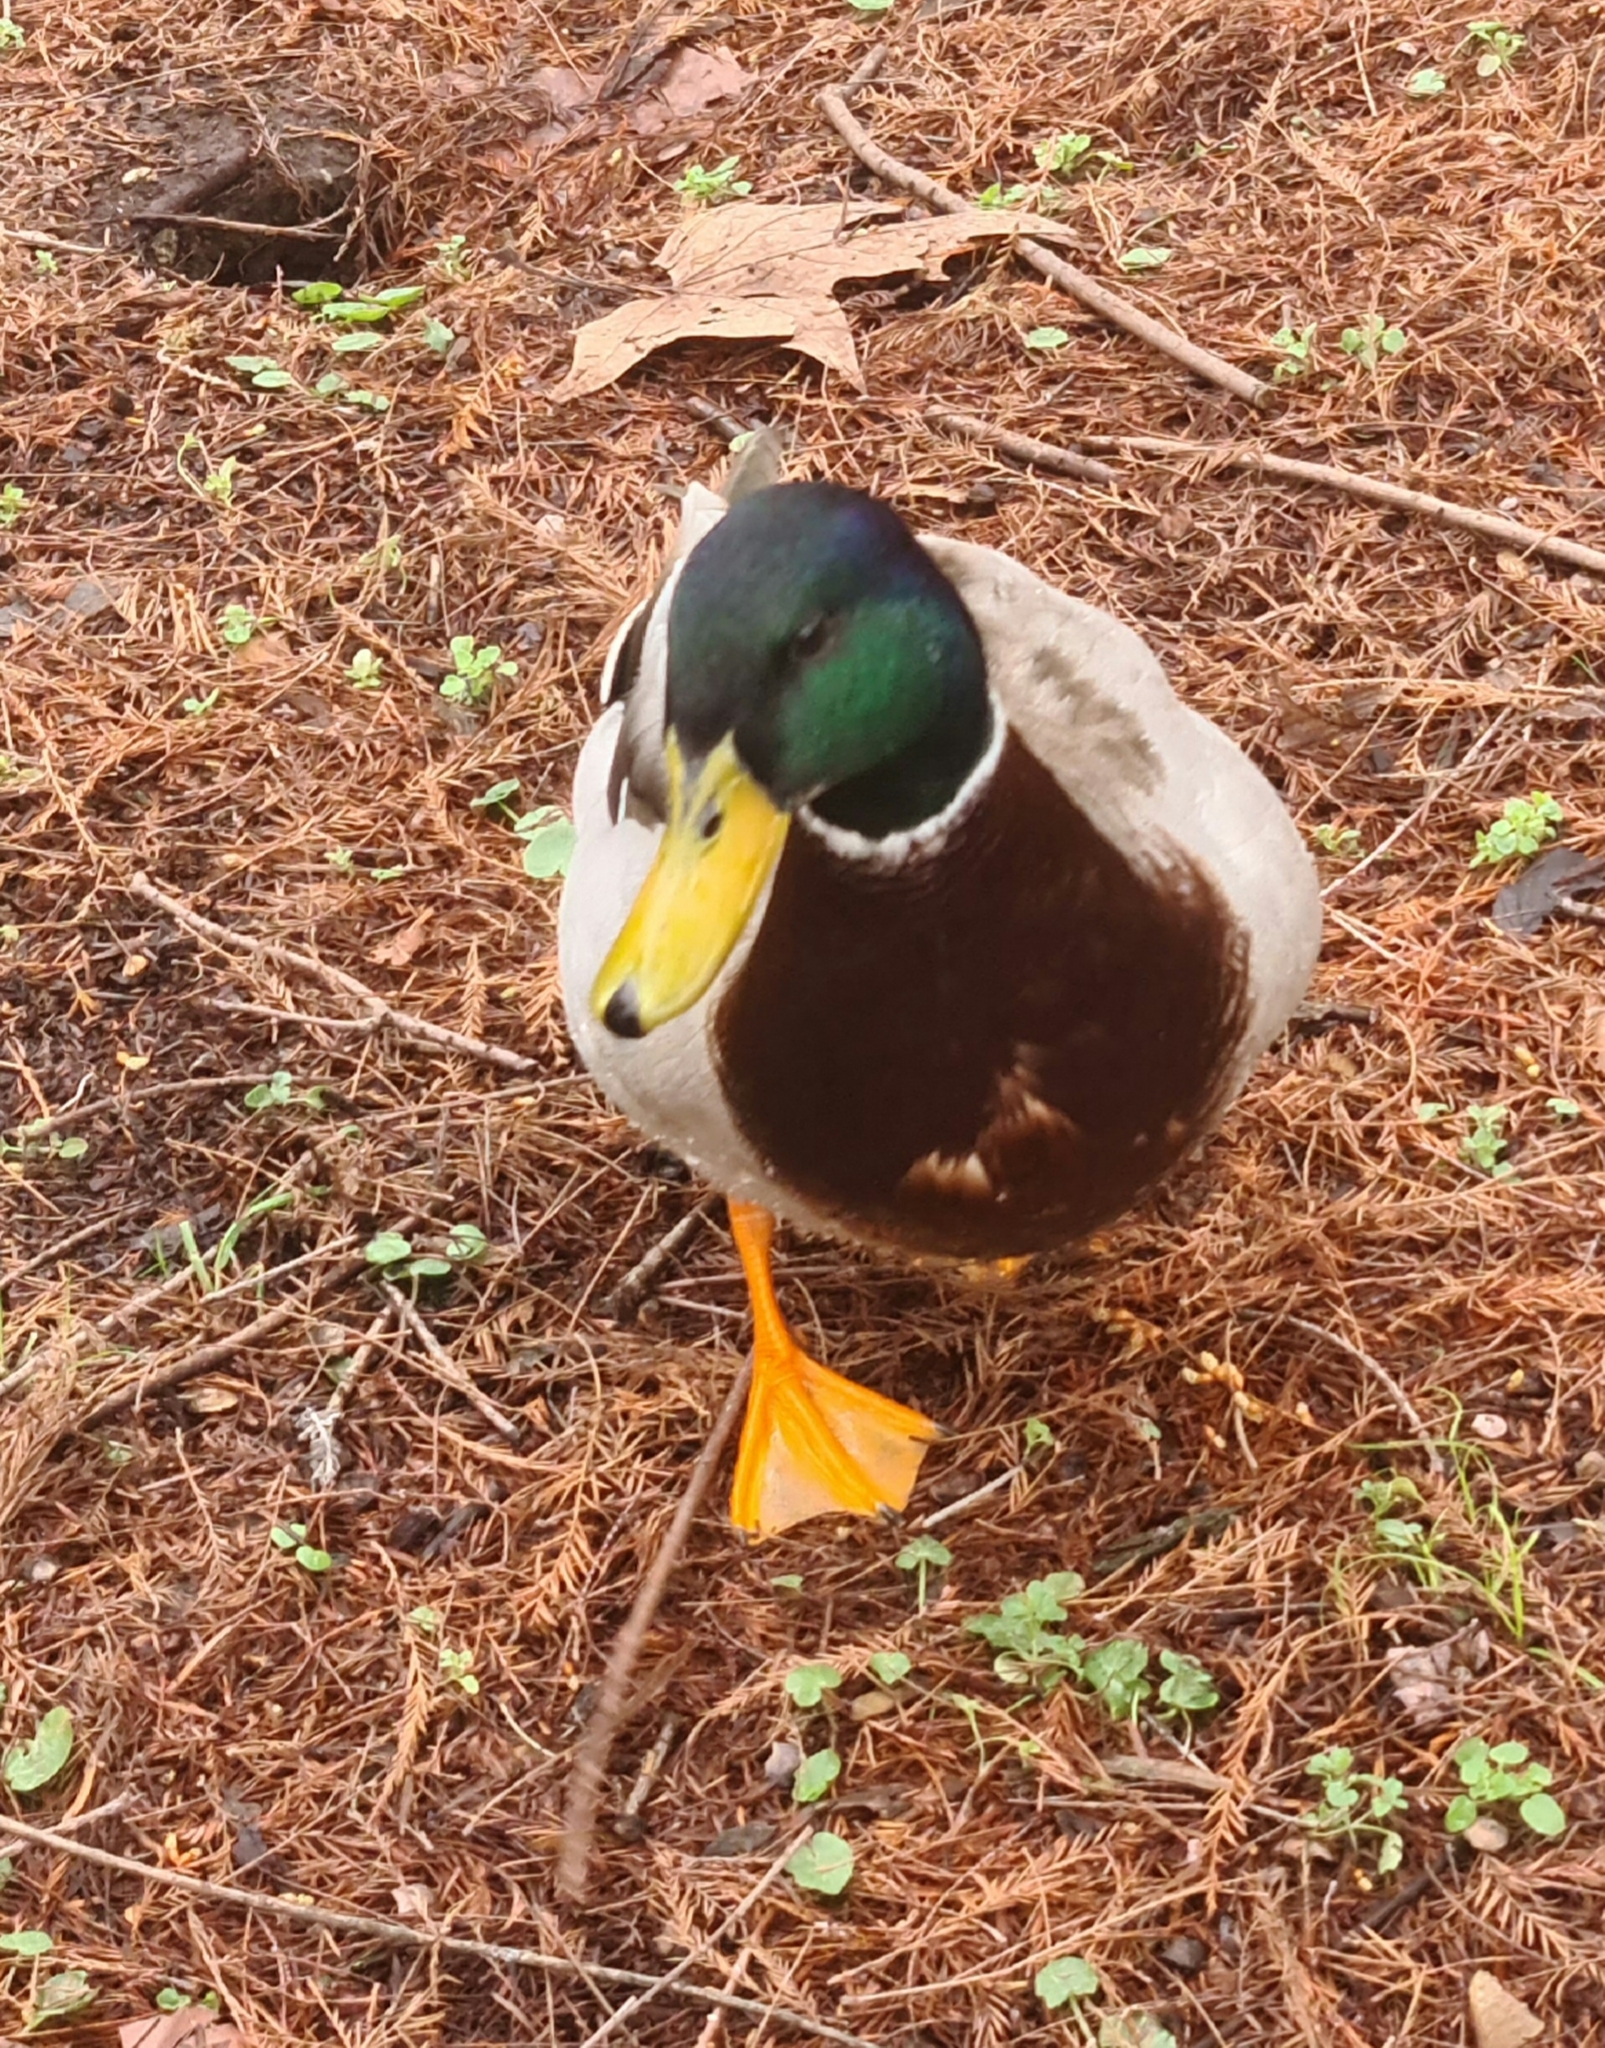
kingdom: Animalia
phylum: Chordata
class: Aves
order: Anseriformes
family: Anatidae
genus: Anas
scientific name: Anas platyrhynchos
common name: Mallard
